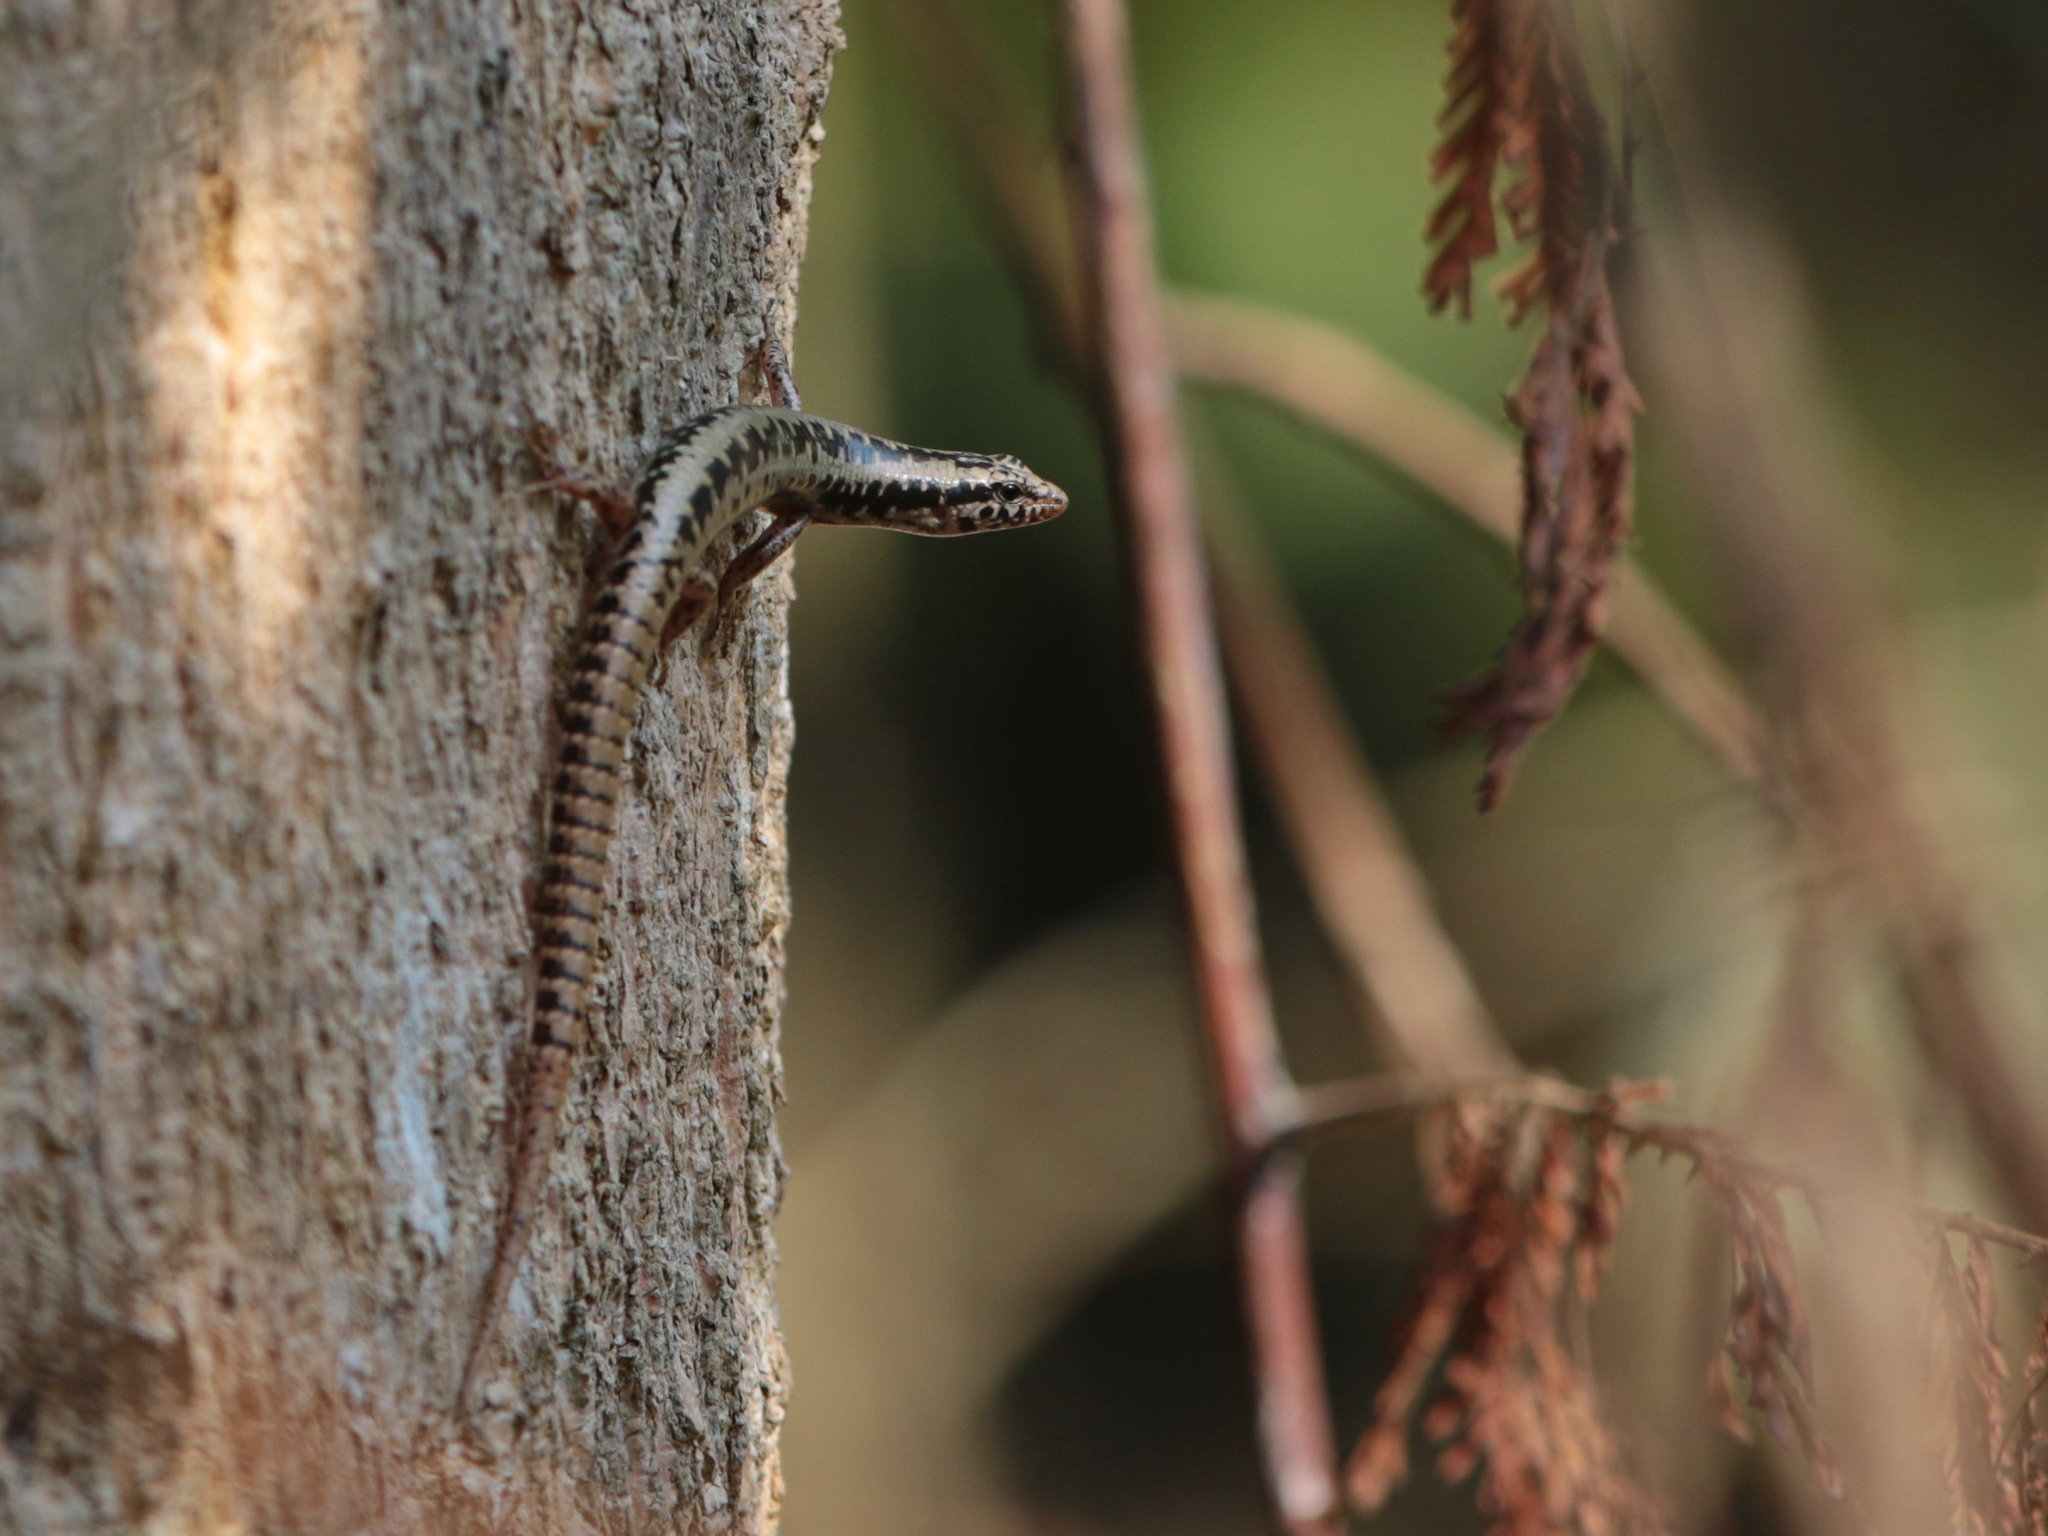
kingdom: Animalia
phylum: Chordata
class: Squamata
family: Scincidae
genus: Sphenomorphus
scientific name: Sphenomorphus annamiticus
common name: Perak forest skink
